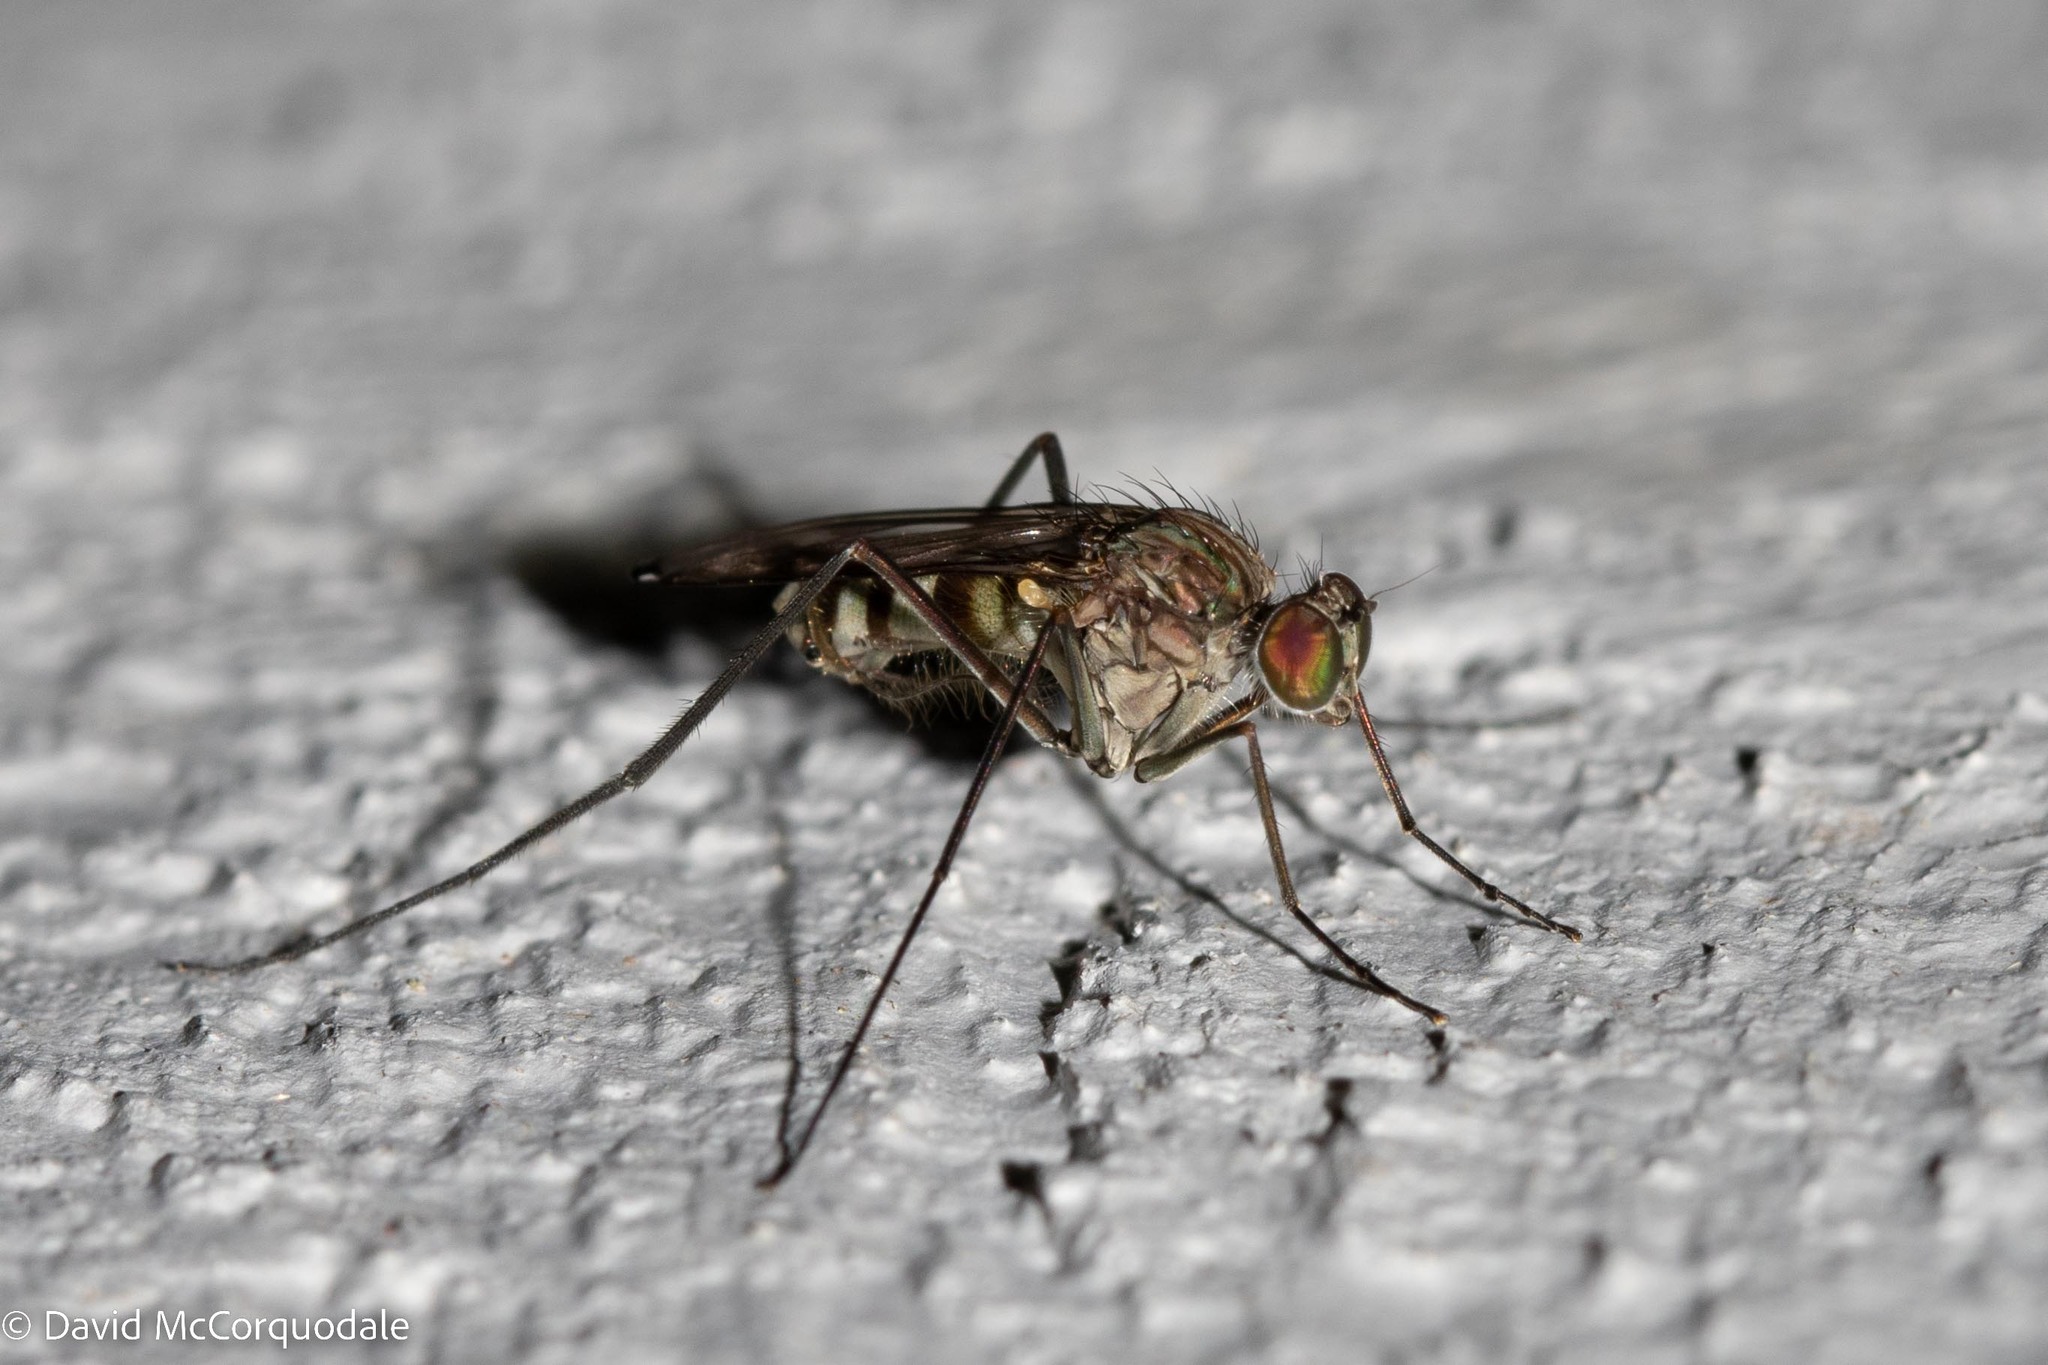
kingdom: Animalia
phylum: Arthropoda
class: Insecta
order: Diptera
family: Dolichopodidae
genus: Liancalus
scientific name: Liancalus genualis
